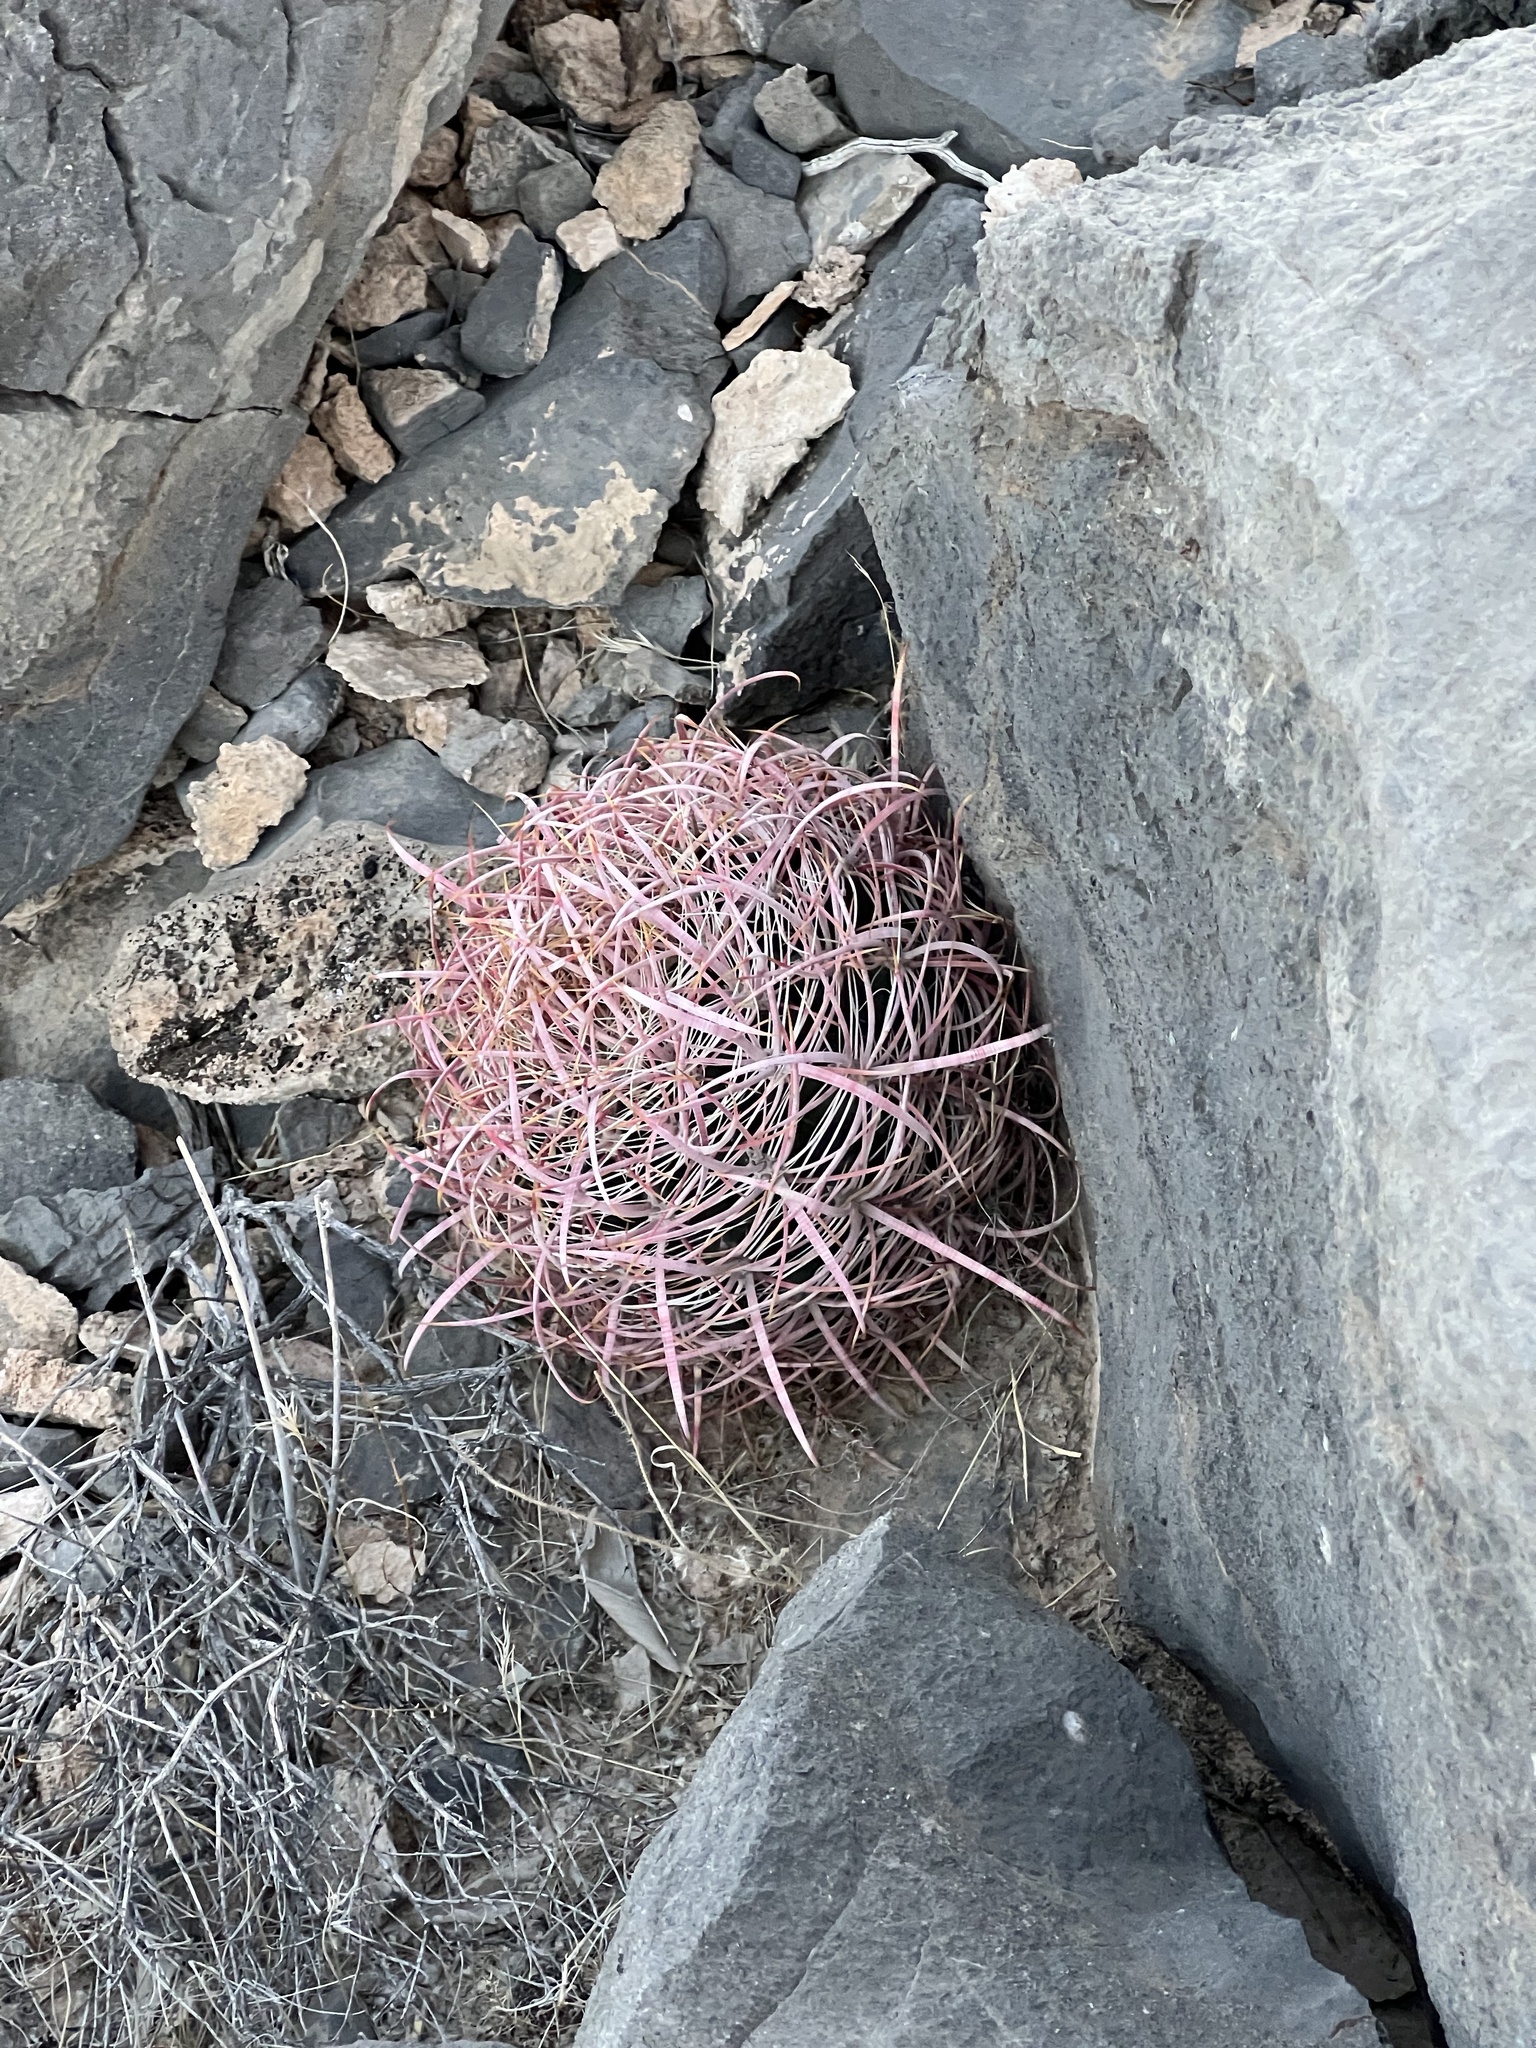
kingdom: Plantae
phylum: Tracheophyta
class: Magnoliopsida
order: Caryophyllales
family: Cactaceae
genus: Ferocactus
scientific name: Ferocactus cylindraceus
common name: California barrel cactus
